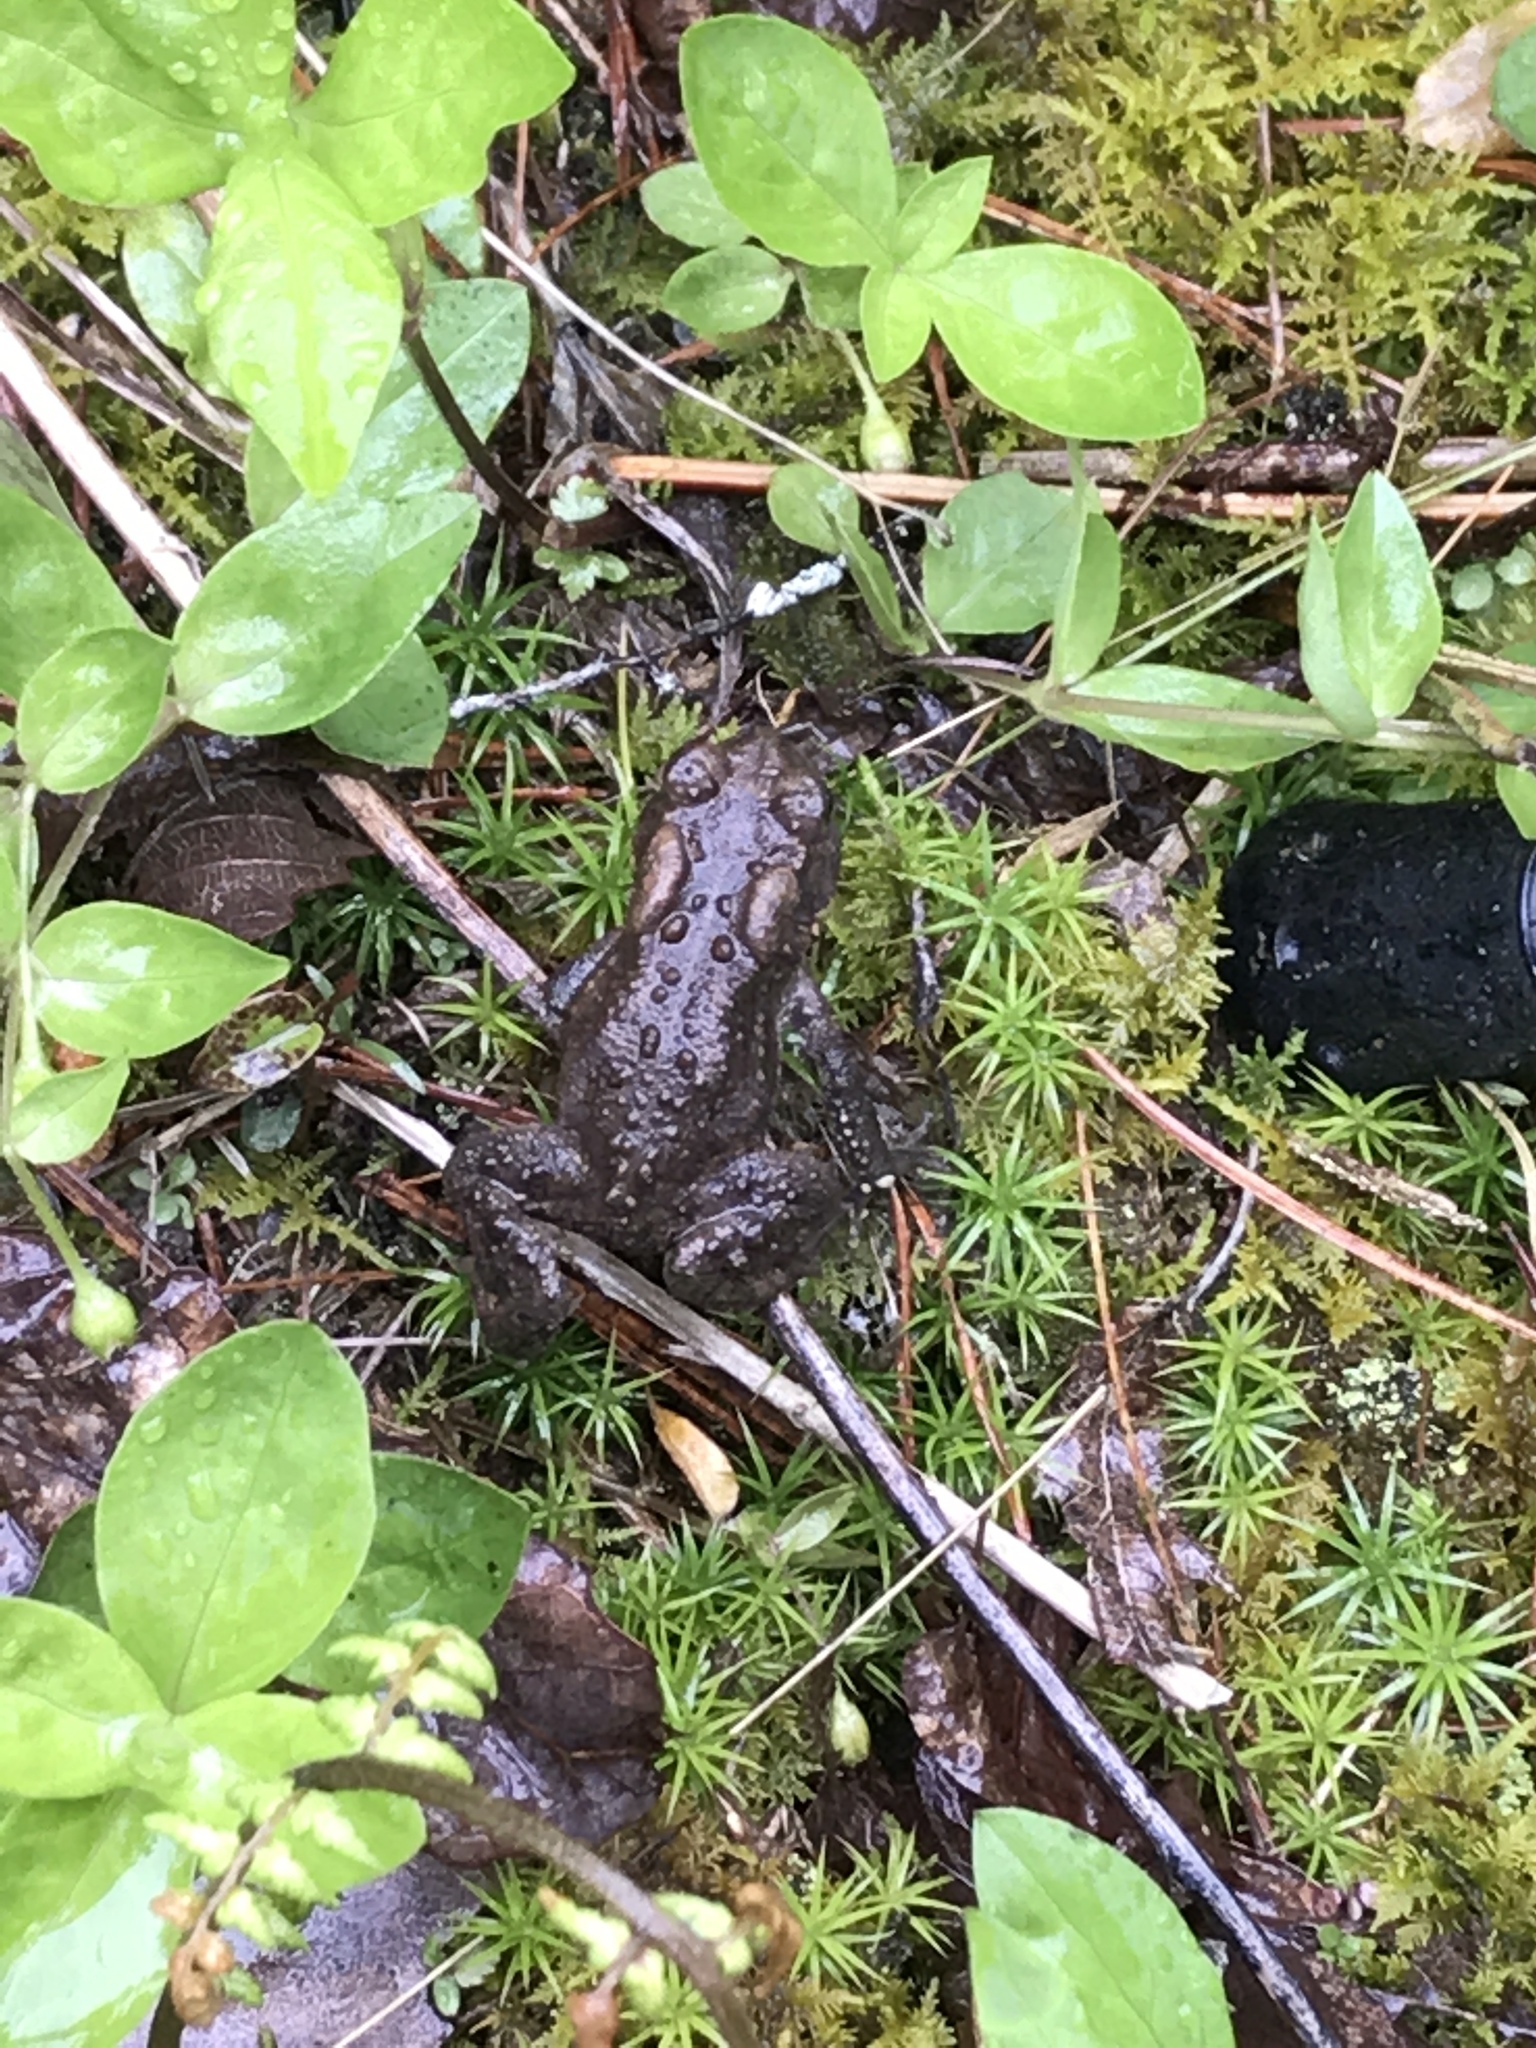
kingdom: Animalia
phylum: Chordata
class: Amphibia
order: Anura
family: Bufonidae
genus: Anaxyrus
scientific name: Anaxyrus americanus
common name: American toad
